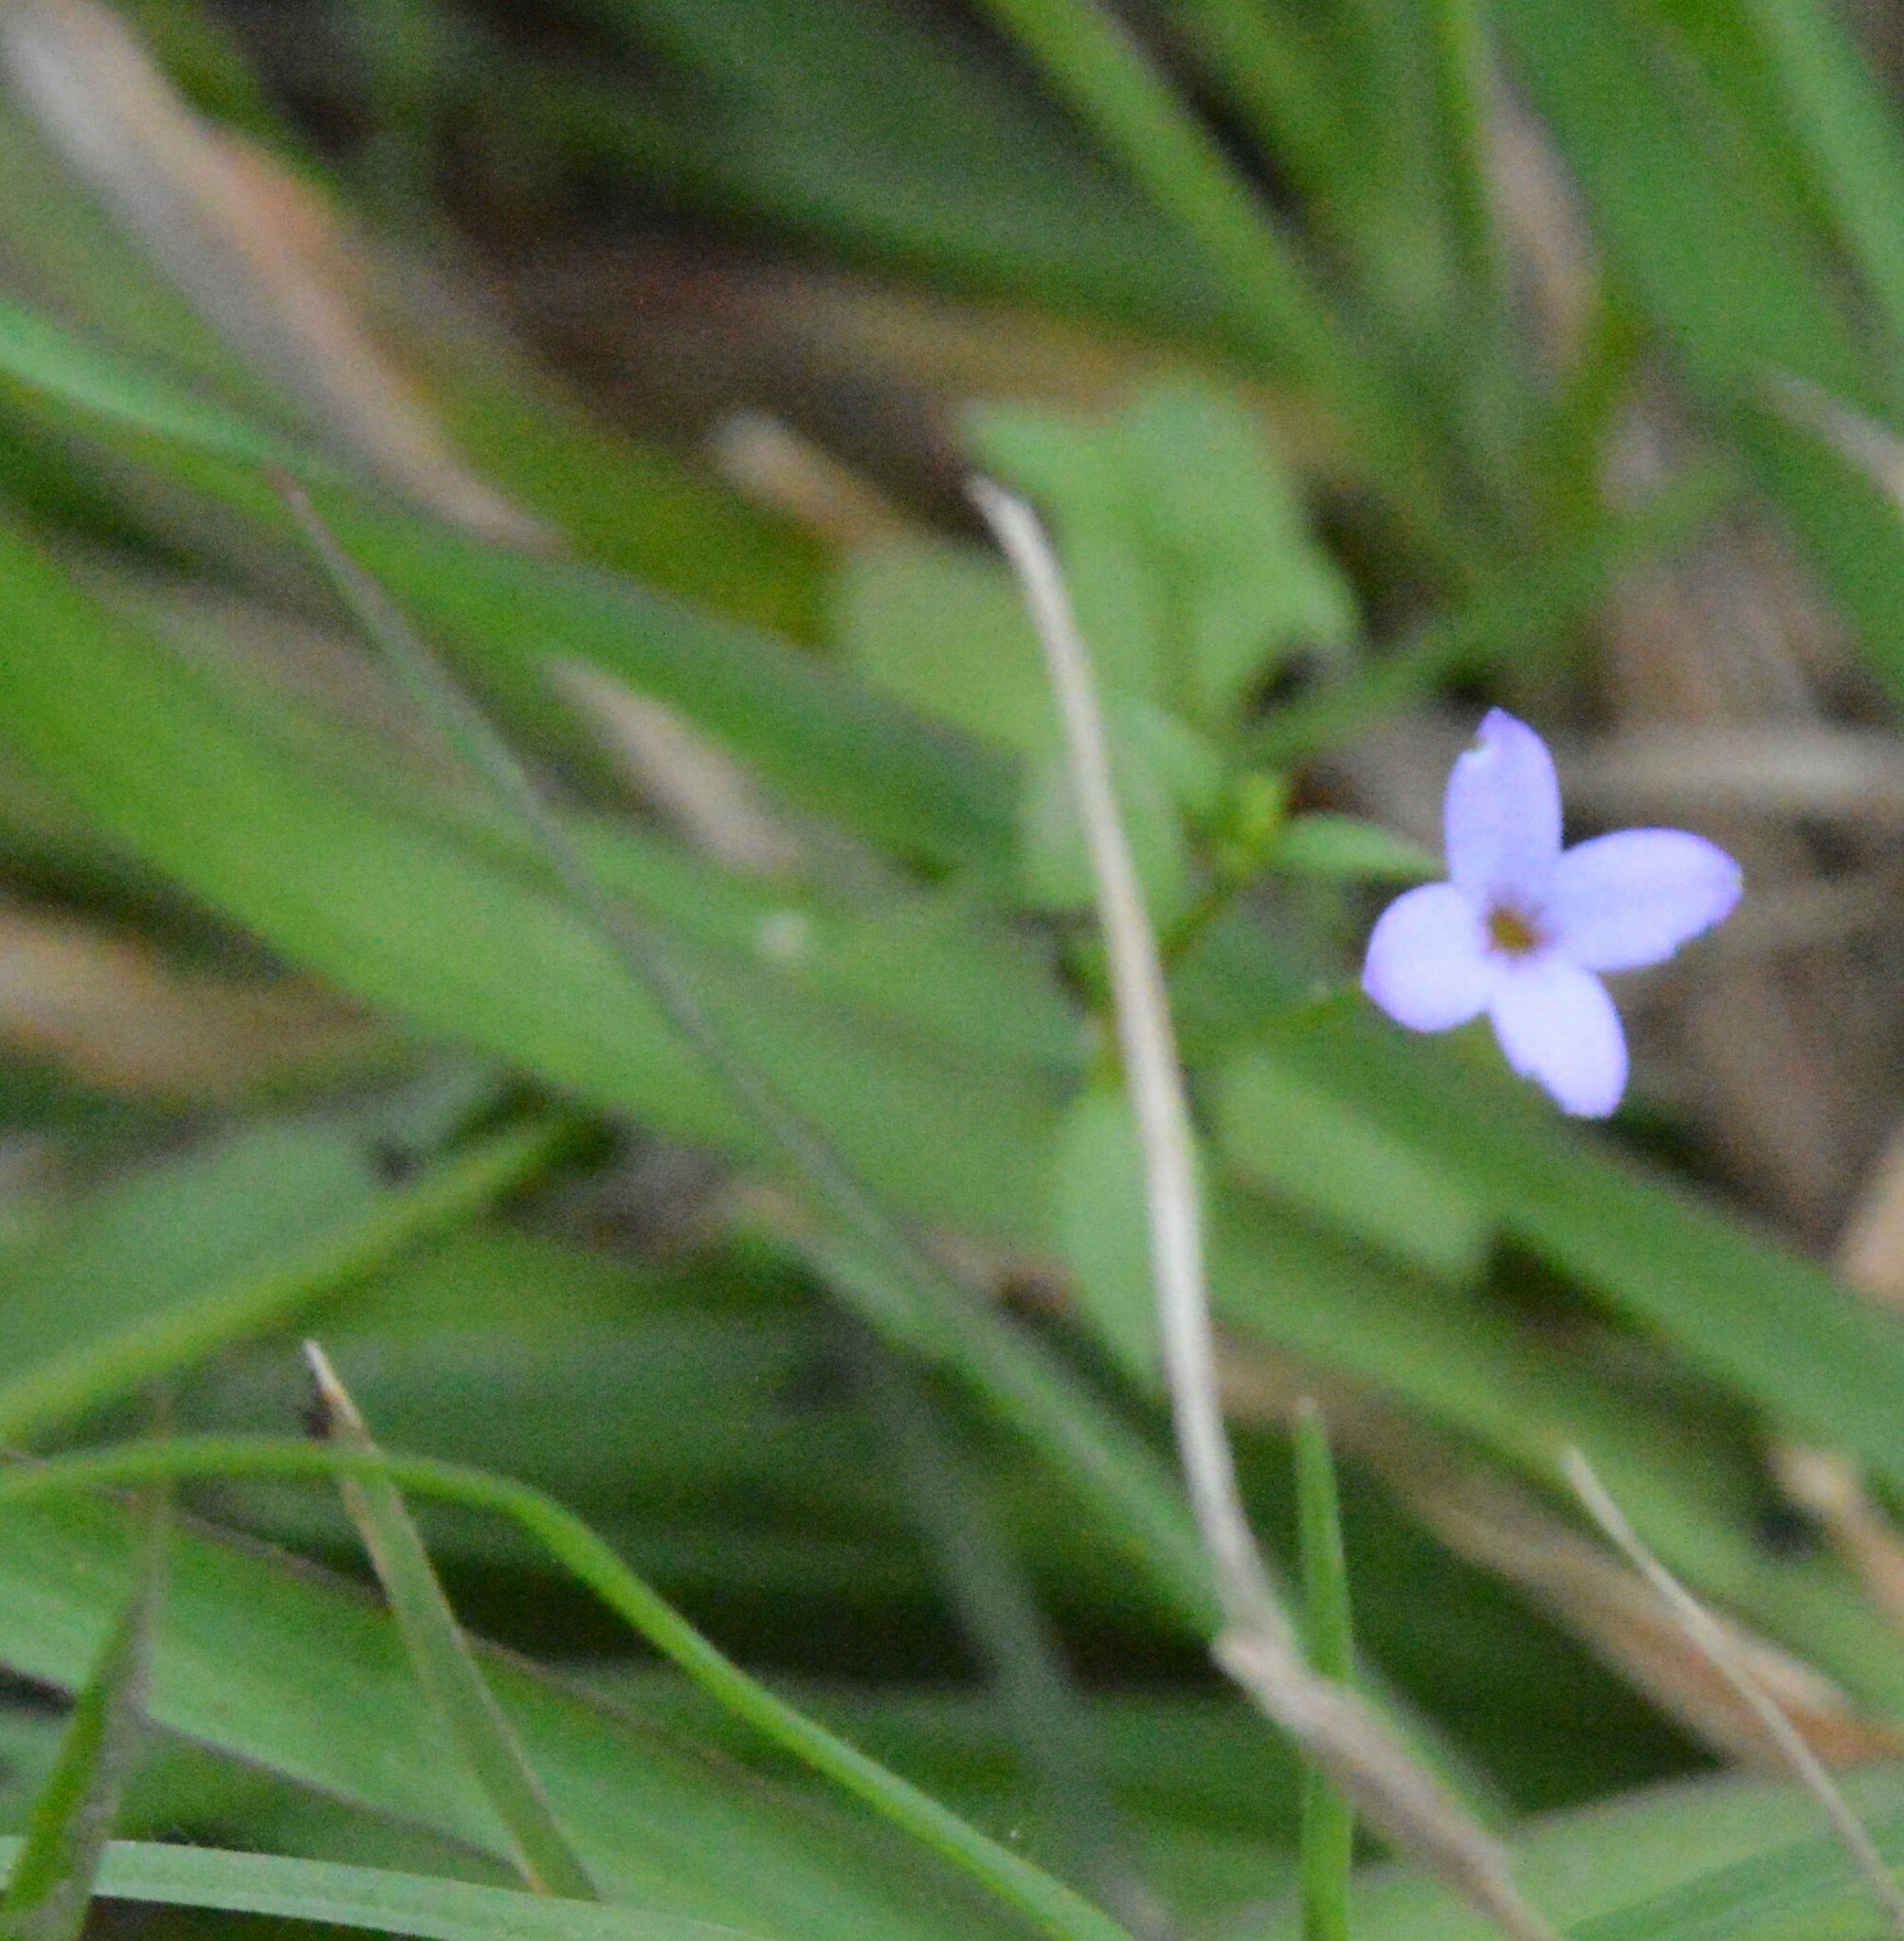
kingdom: Plantae
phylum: Tracheophyta
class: Magnoliopsida
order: Gentianales
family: Rubiaceae
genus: Houstonia
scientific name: Houstonia pusilla
